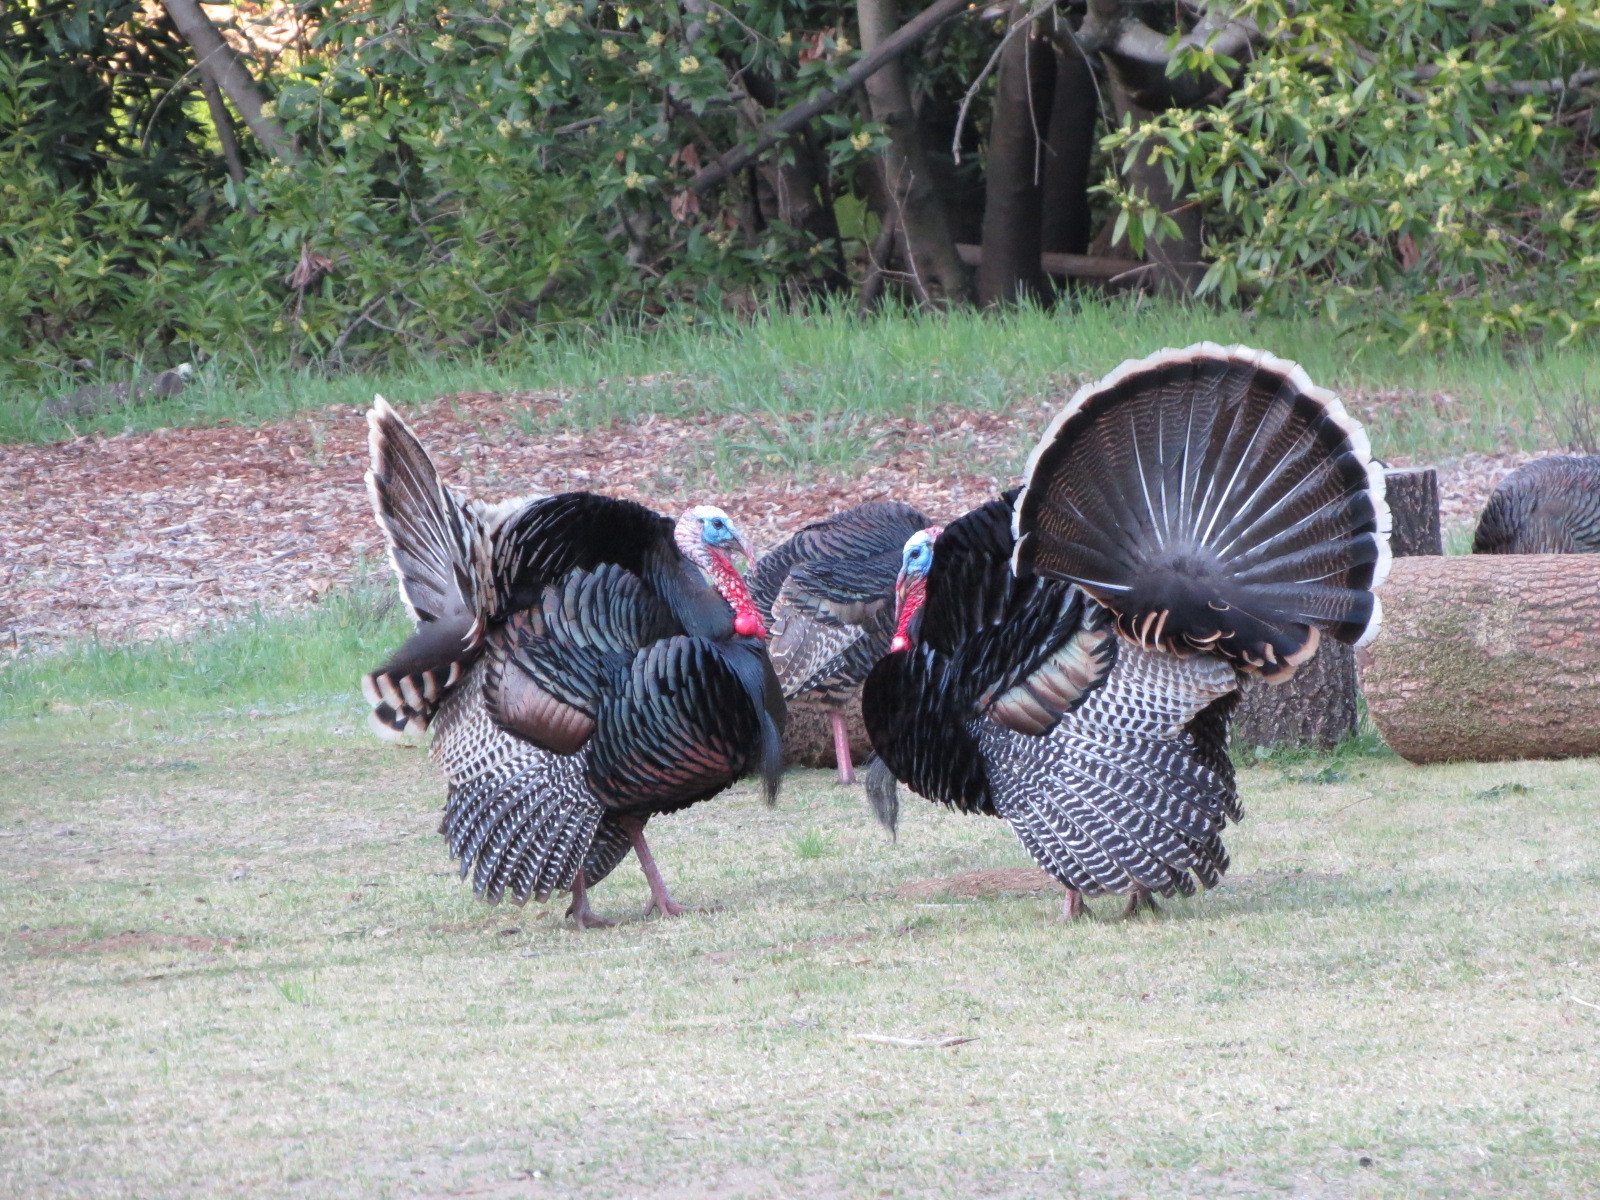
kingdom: Animalia
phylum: Chordata
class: Aves
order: Galliformes
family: Phasianidae
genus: Meleagris
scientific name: Meleagris gallopavo
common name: Wild turkey
